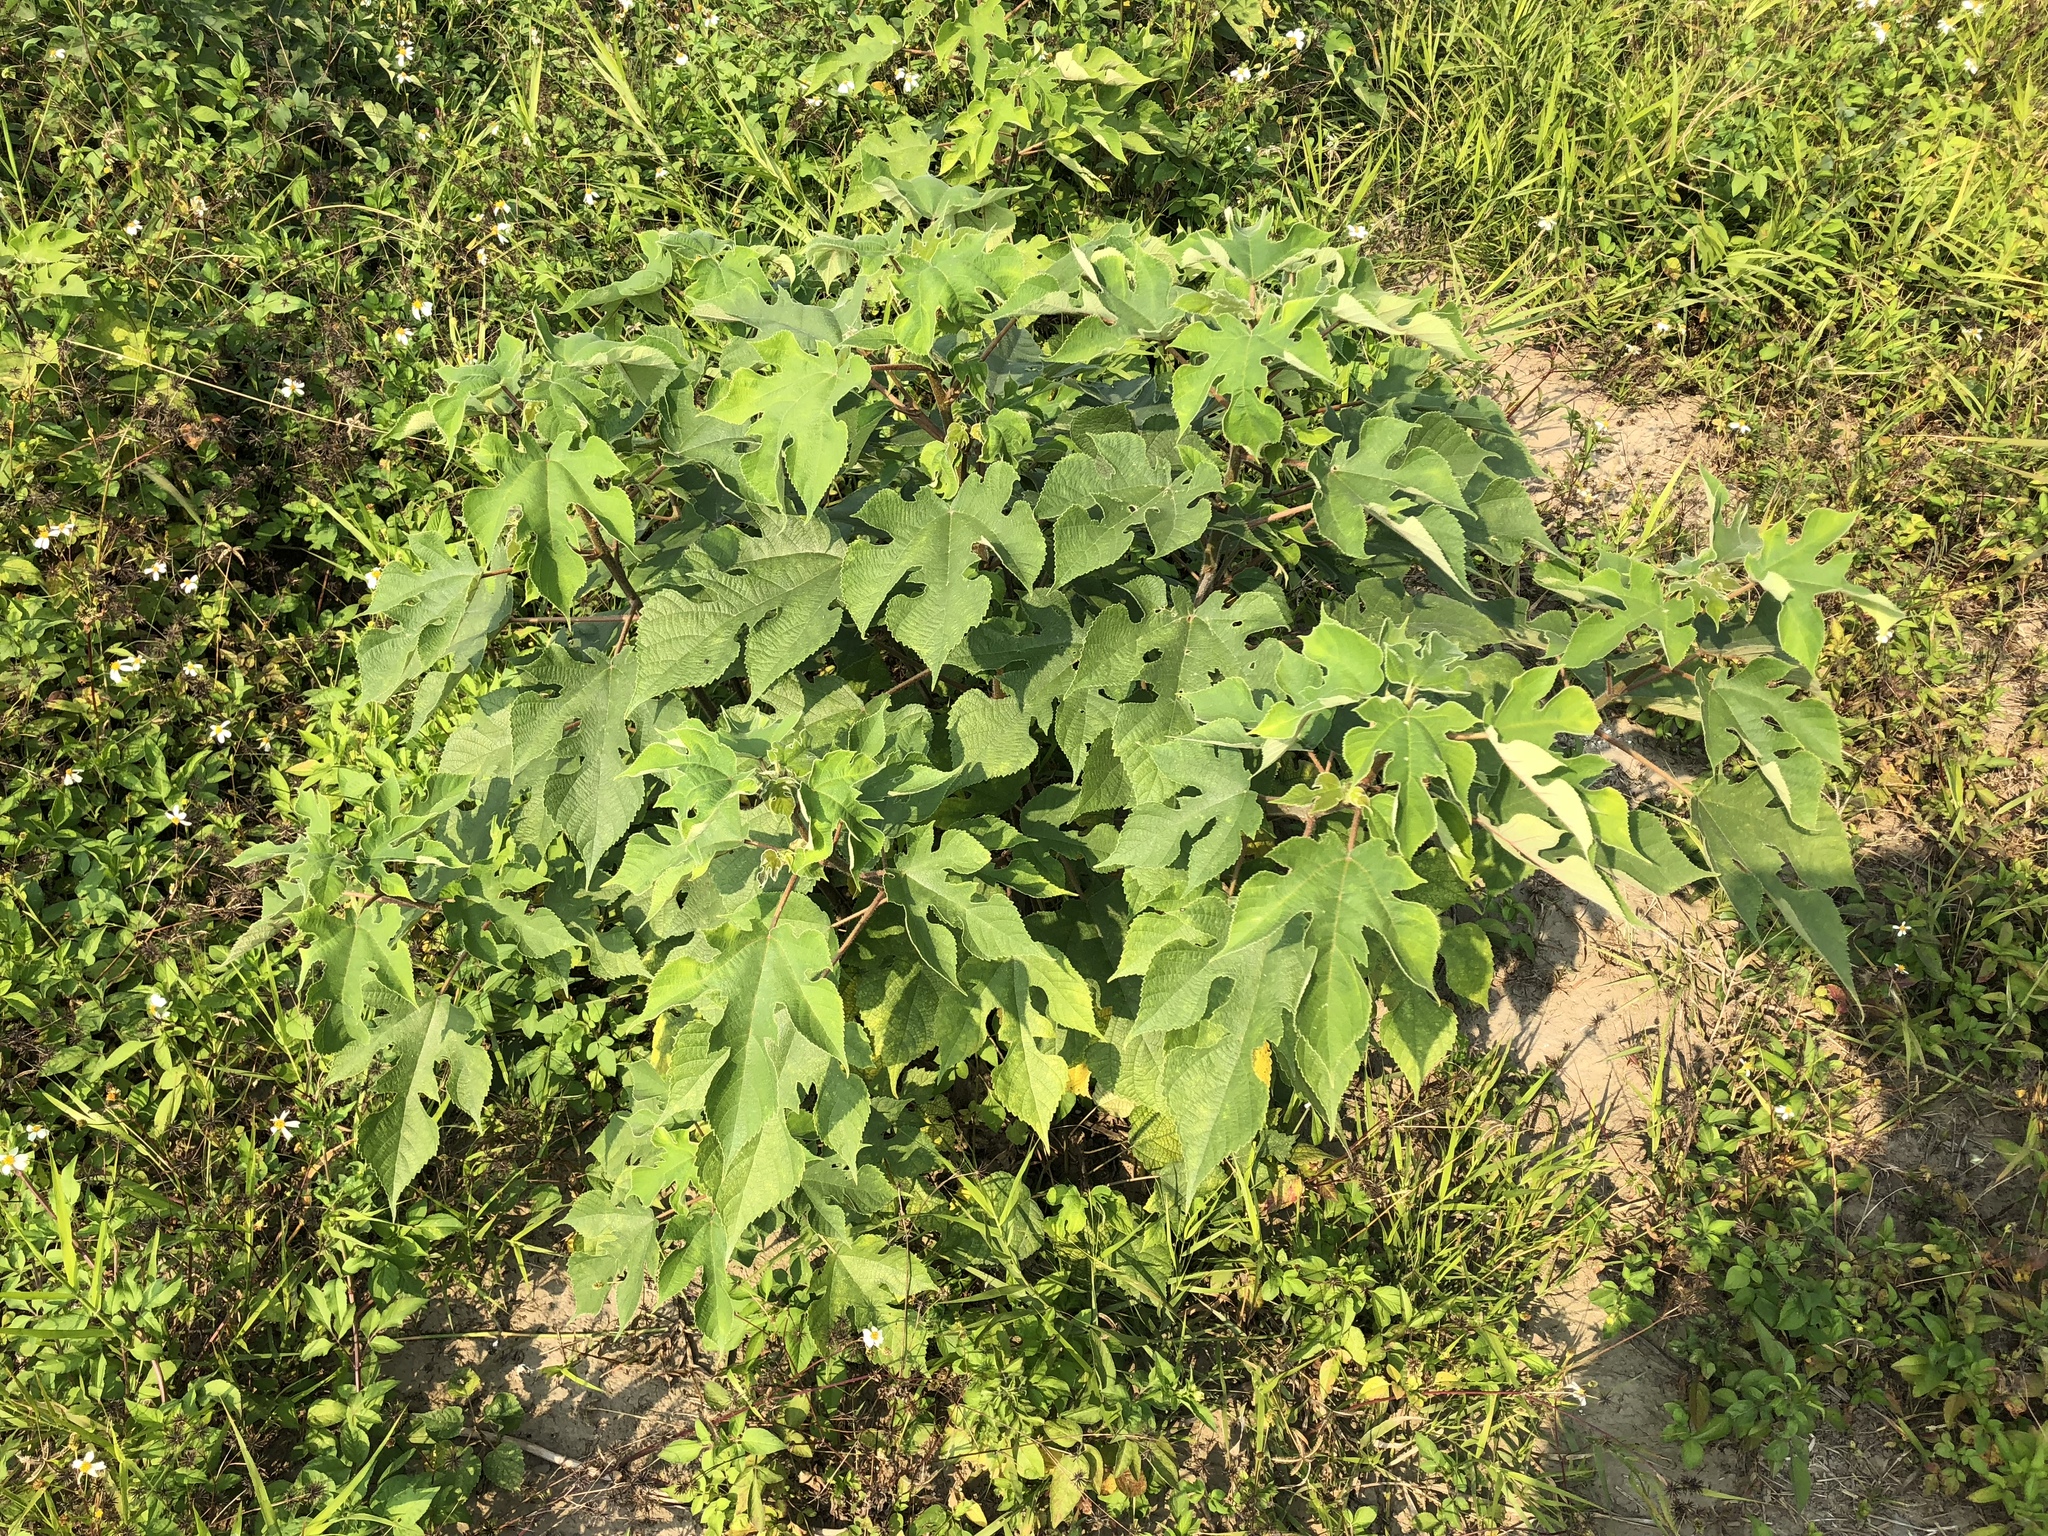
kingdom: Plantae
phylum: Tracheophyta
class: Magnoliopsida
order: Rosales
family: Moraceae
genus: Broussonetia
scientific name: Broussonetia papyrifera
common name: Paper mulberry
